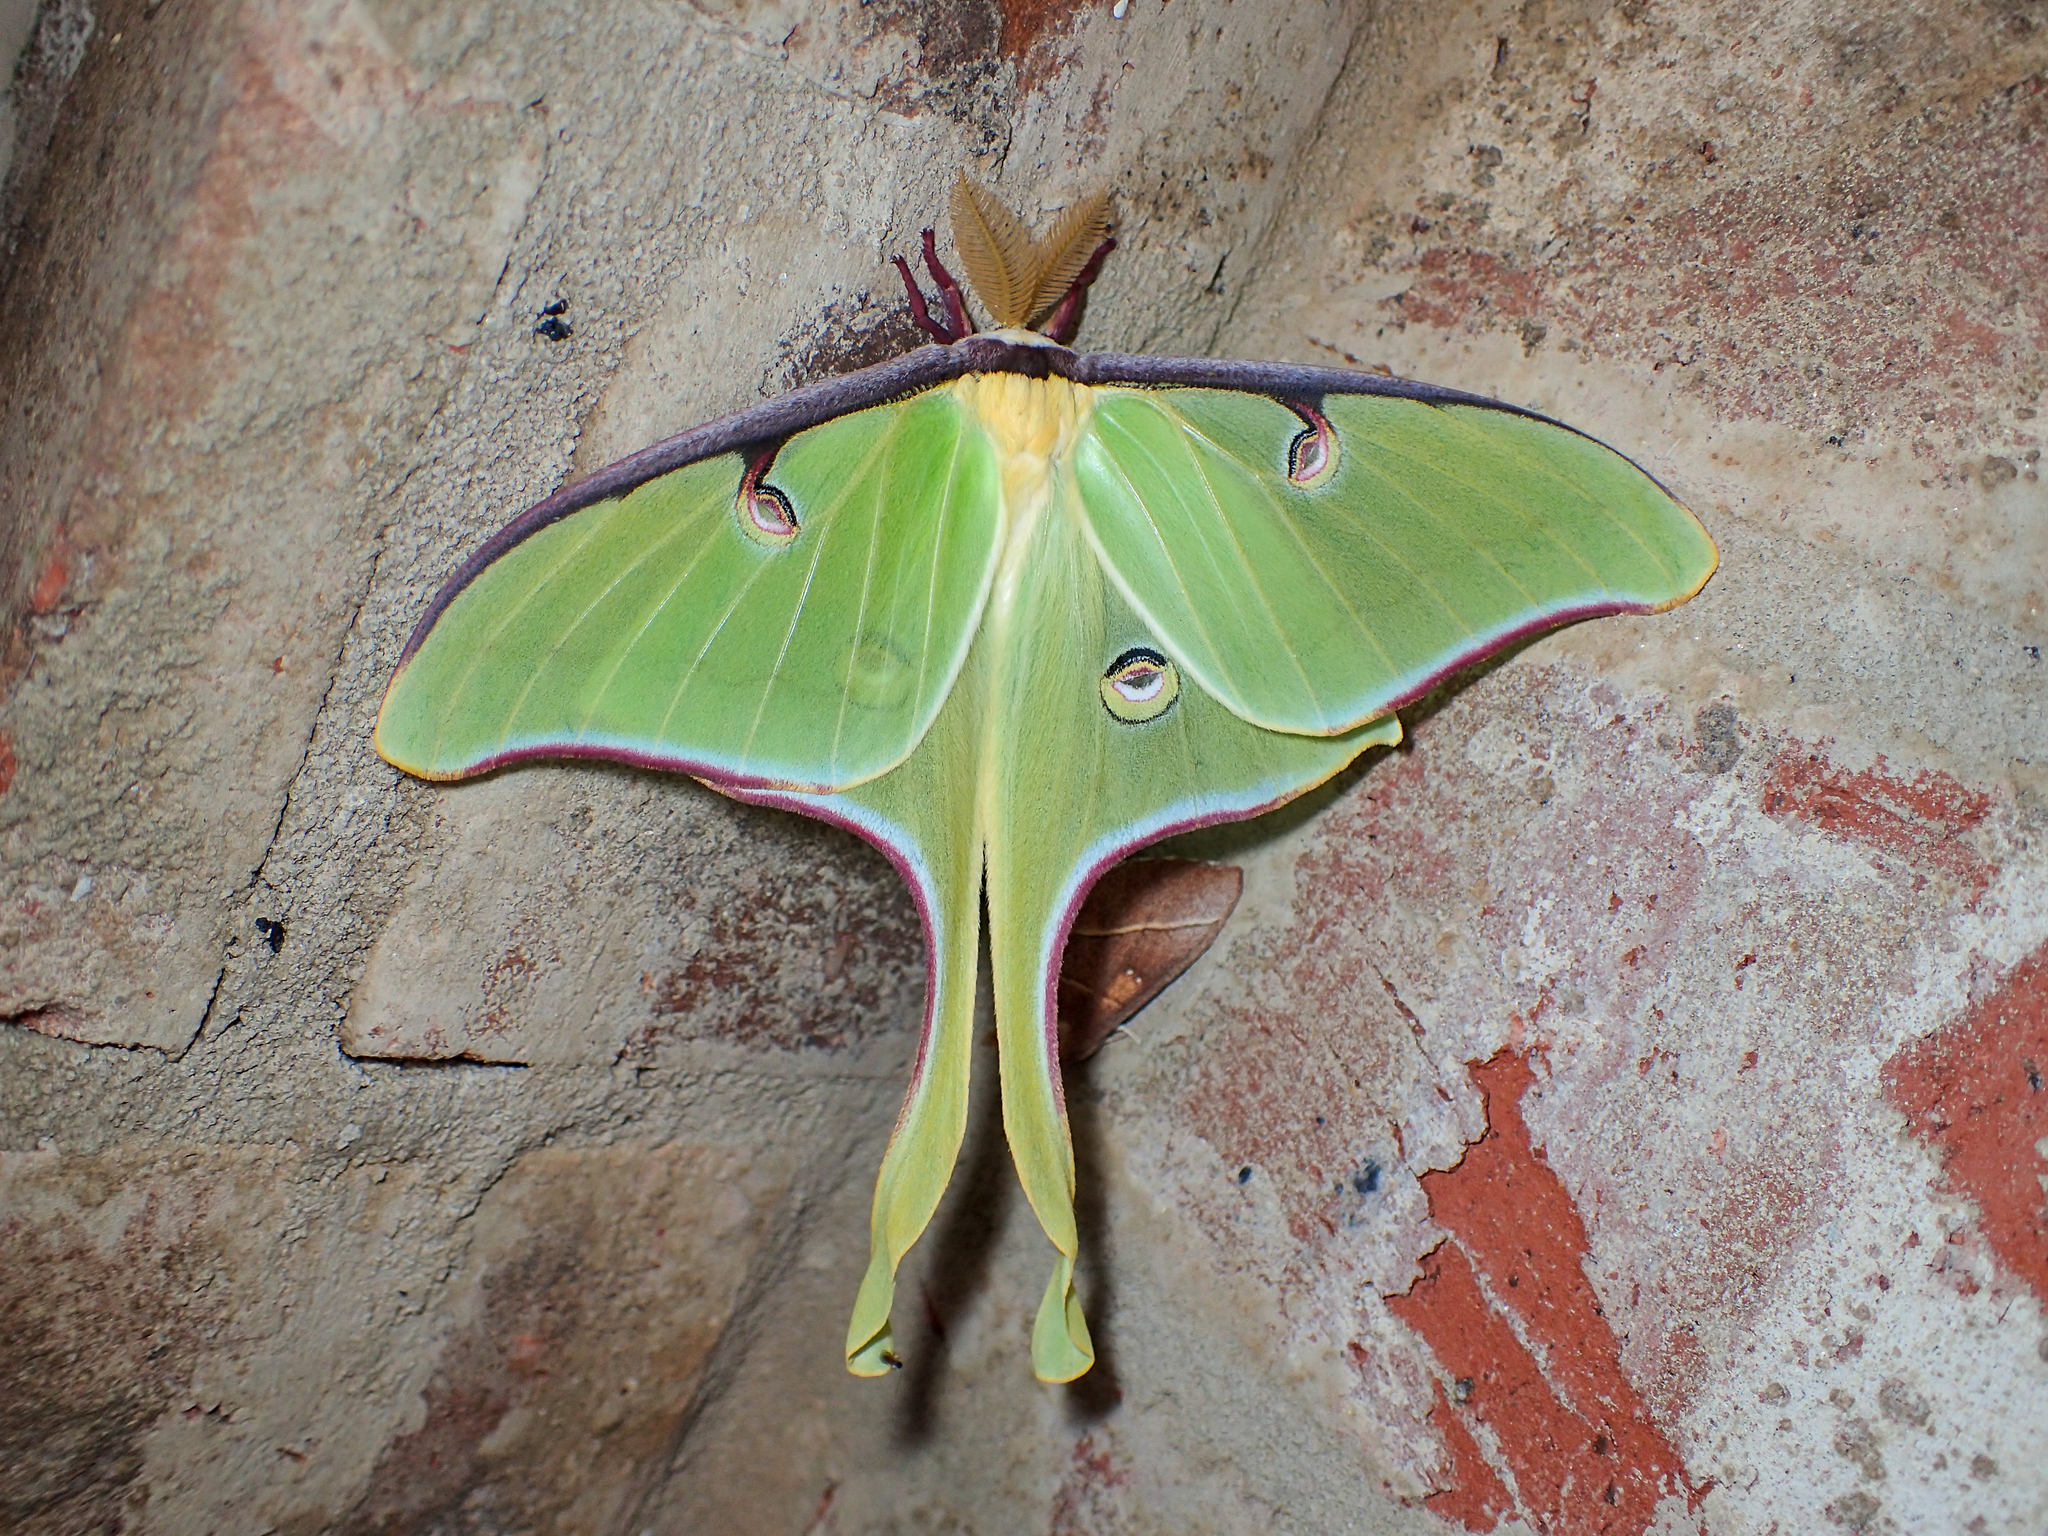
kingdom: Animalia
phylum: Arthropoda
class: Insecta
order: Lepidoptera
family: Saturniidae
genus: Actias
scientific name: Actias luna
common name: Luna moth
